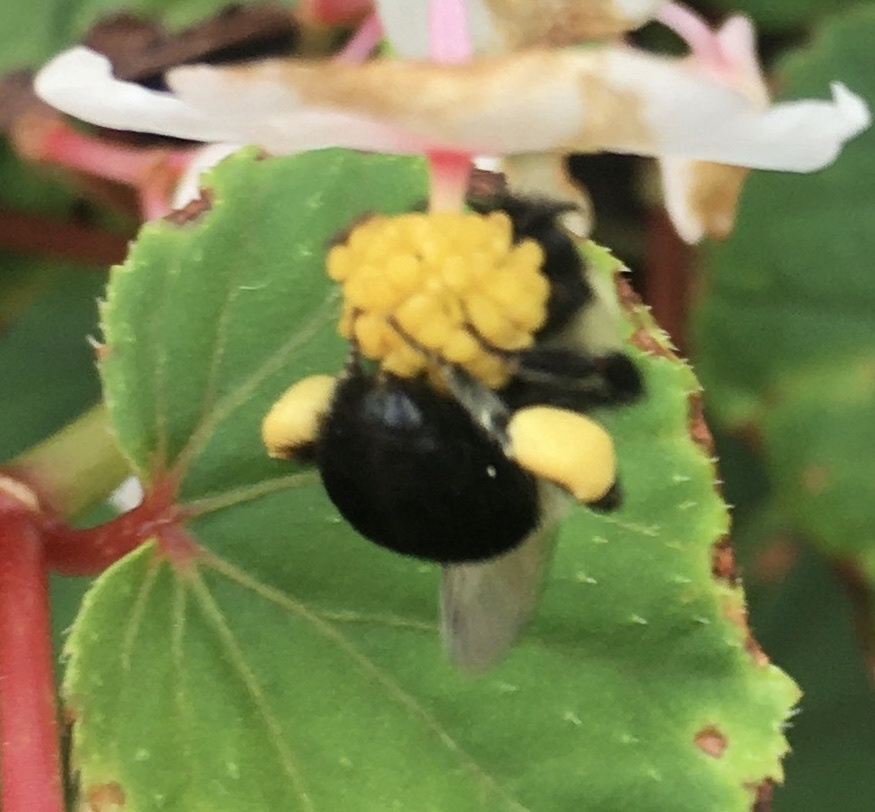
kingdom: Animalia
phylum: Arthropoda
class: Insecta
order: Hymenoptera
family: Apidae
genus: Bombus
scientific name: Bombus impatiens
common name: Common eastern bumble bee
